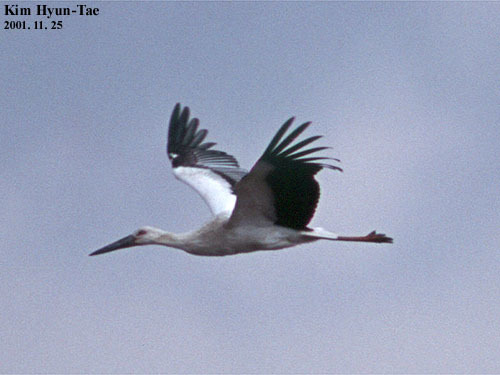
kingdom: Animalia
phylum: Chordata
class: Aves
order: Ciconiiformes
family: Ciconiidae
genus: Ciconia
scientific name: Ciconia boyciana
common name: Oriental stork
